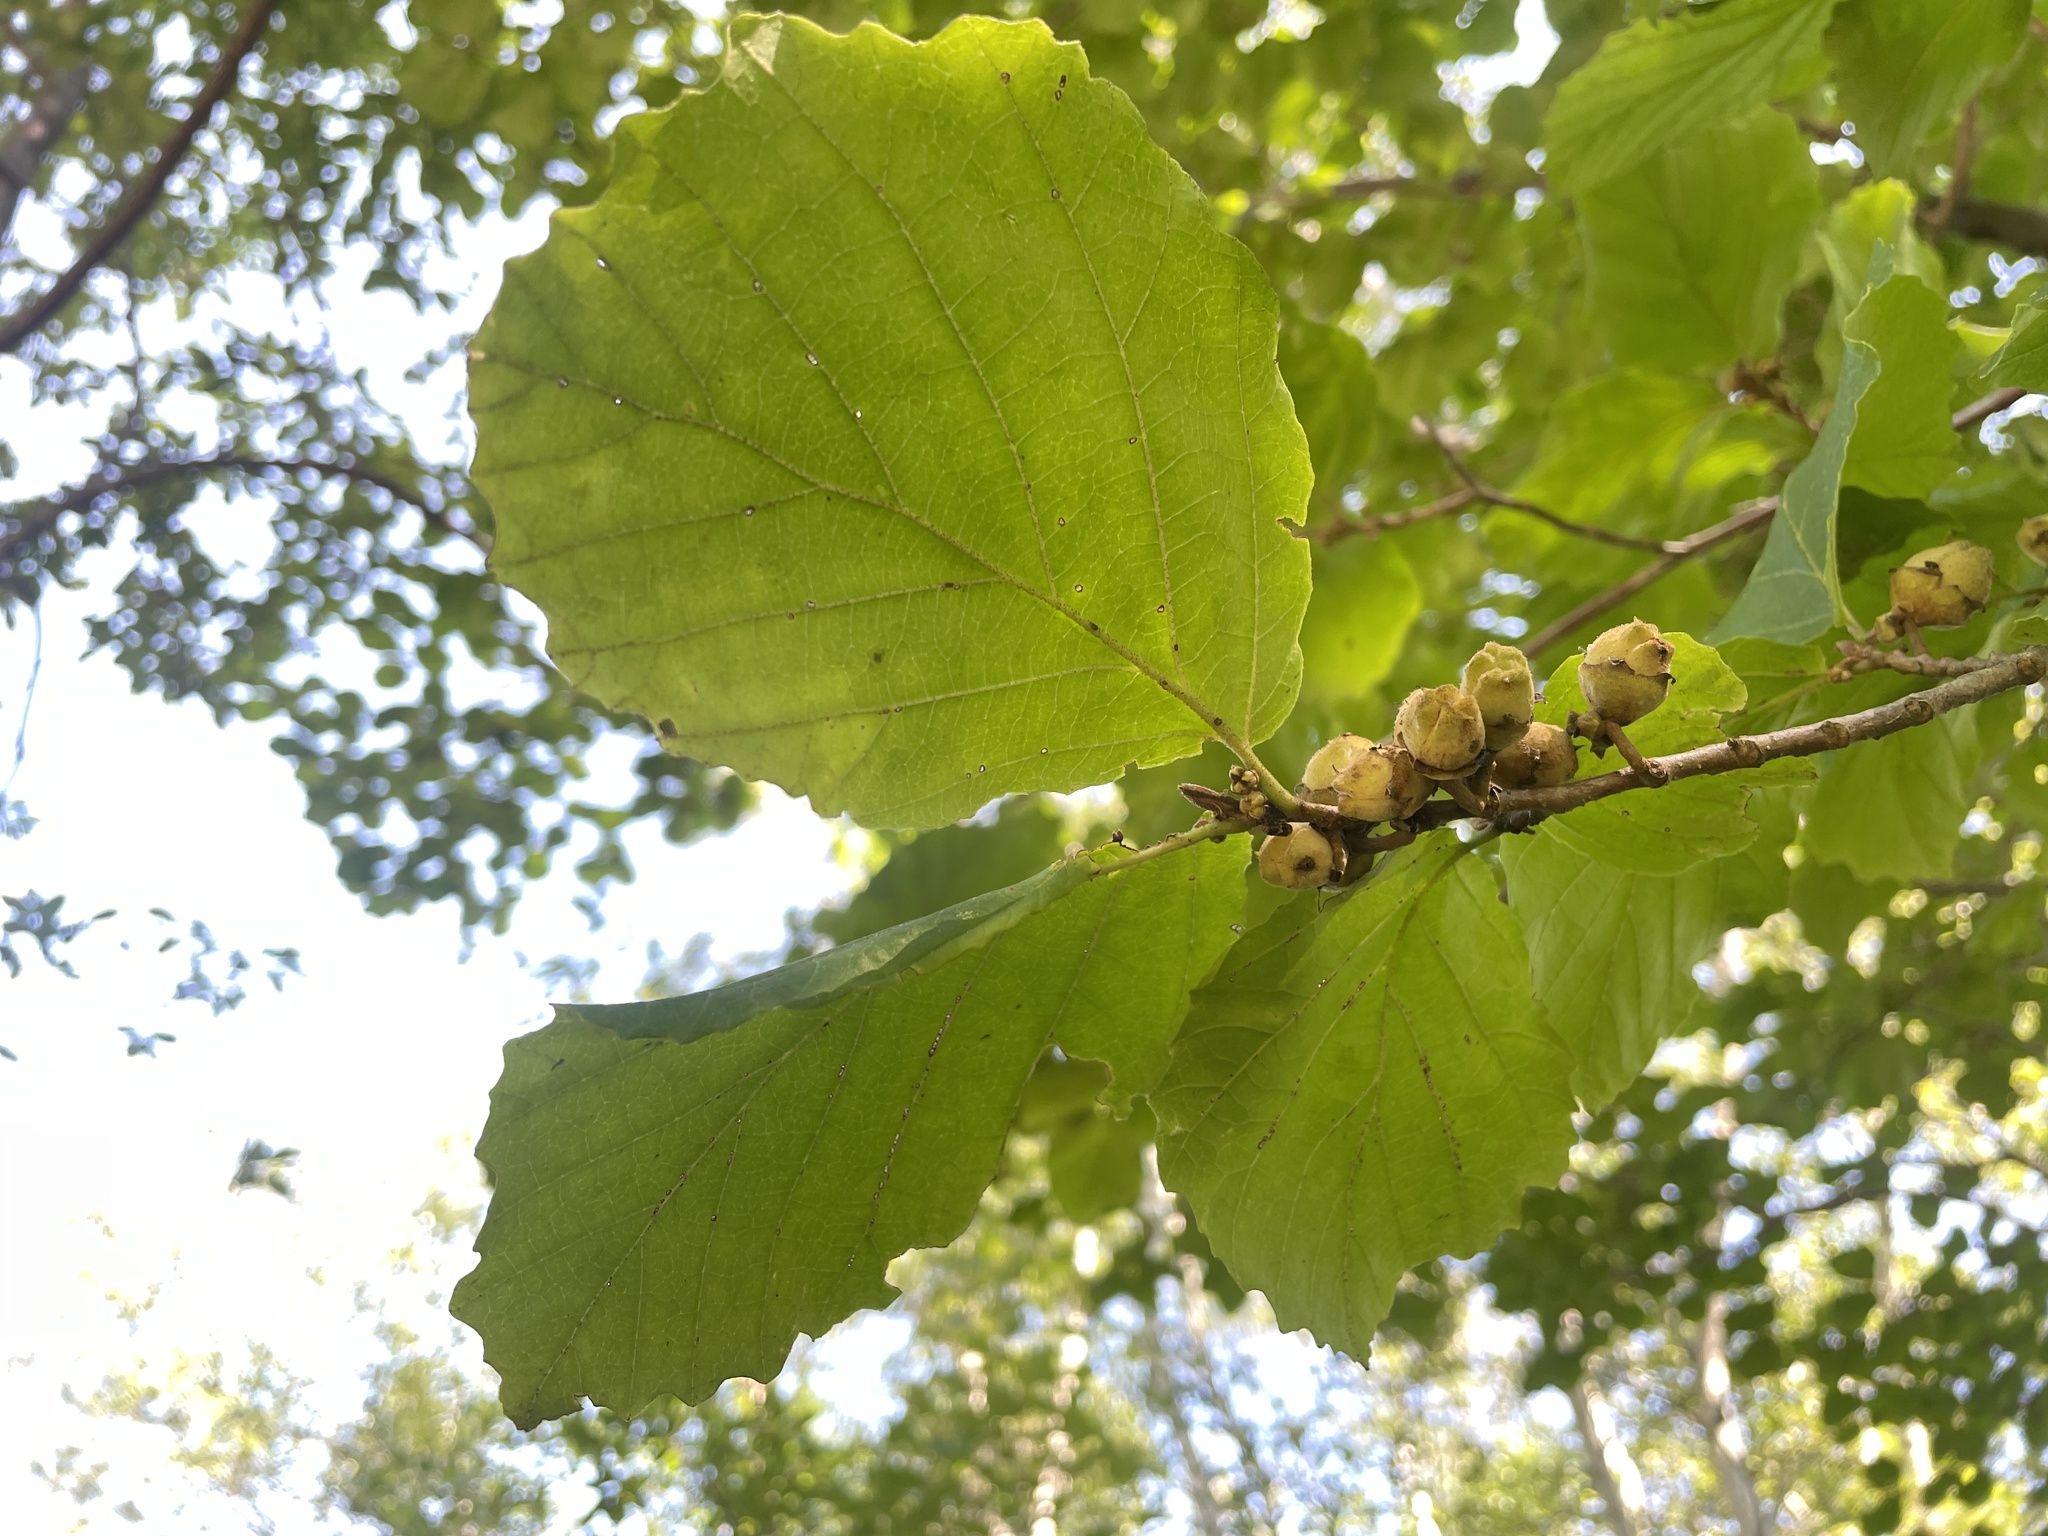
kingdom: Plantae
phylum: Tracheophyta
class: Magnoliopsida
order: Saxifragales
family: Hamamelidaceae
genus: Hamamelis
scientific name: Hamamelis virginiana
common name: Witch-hazel
